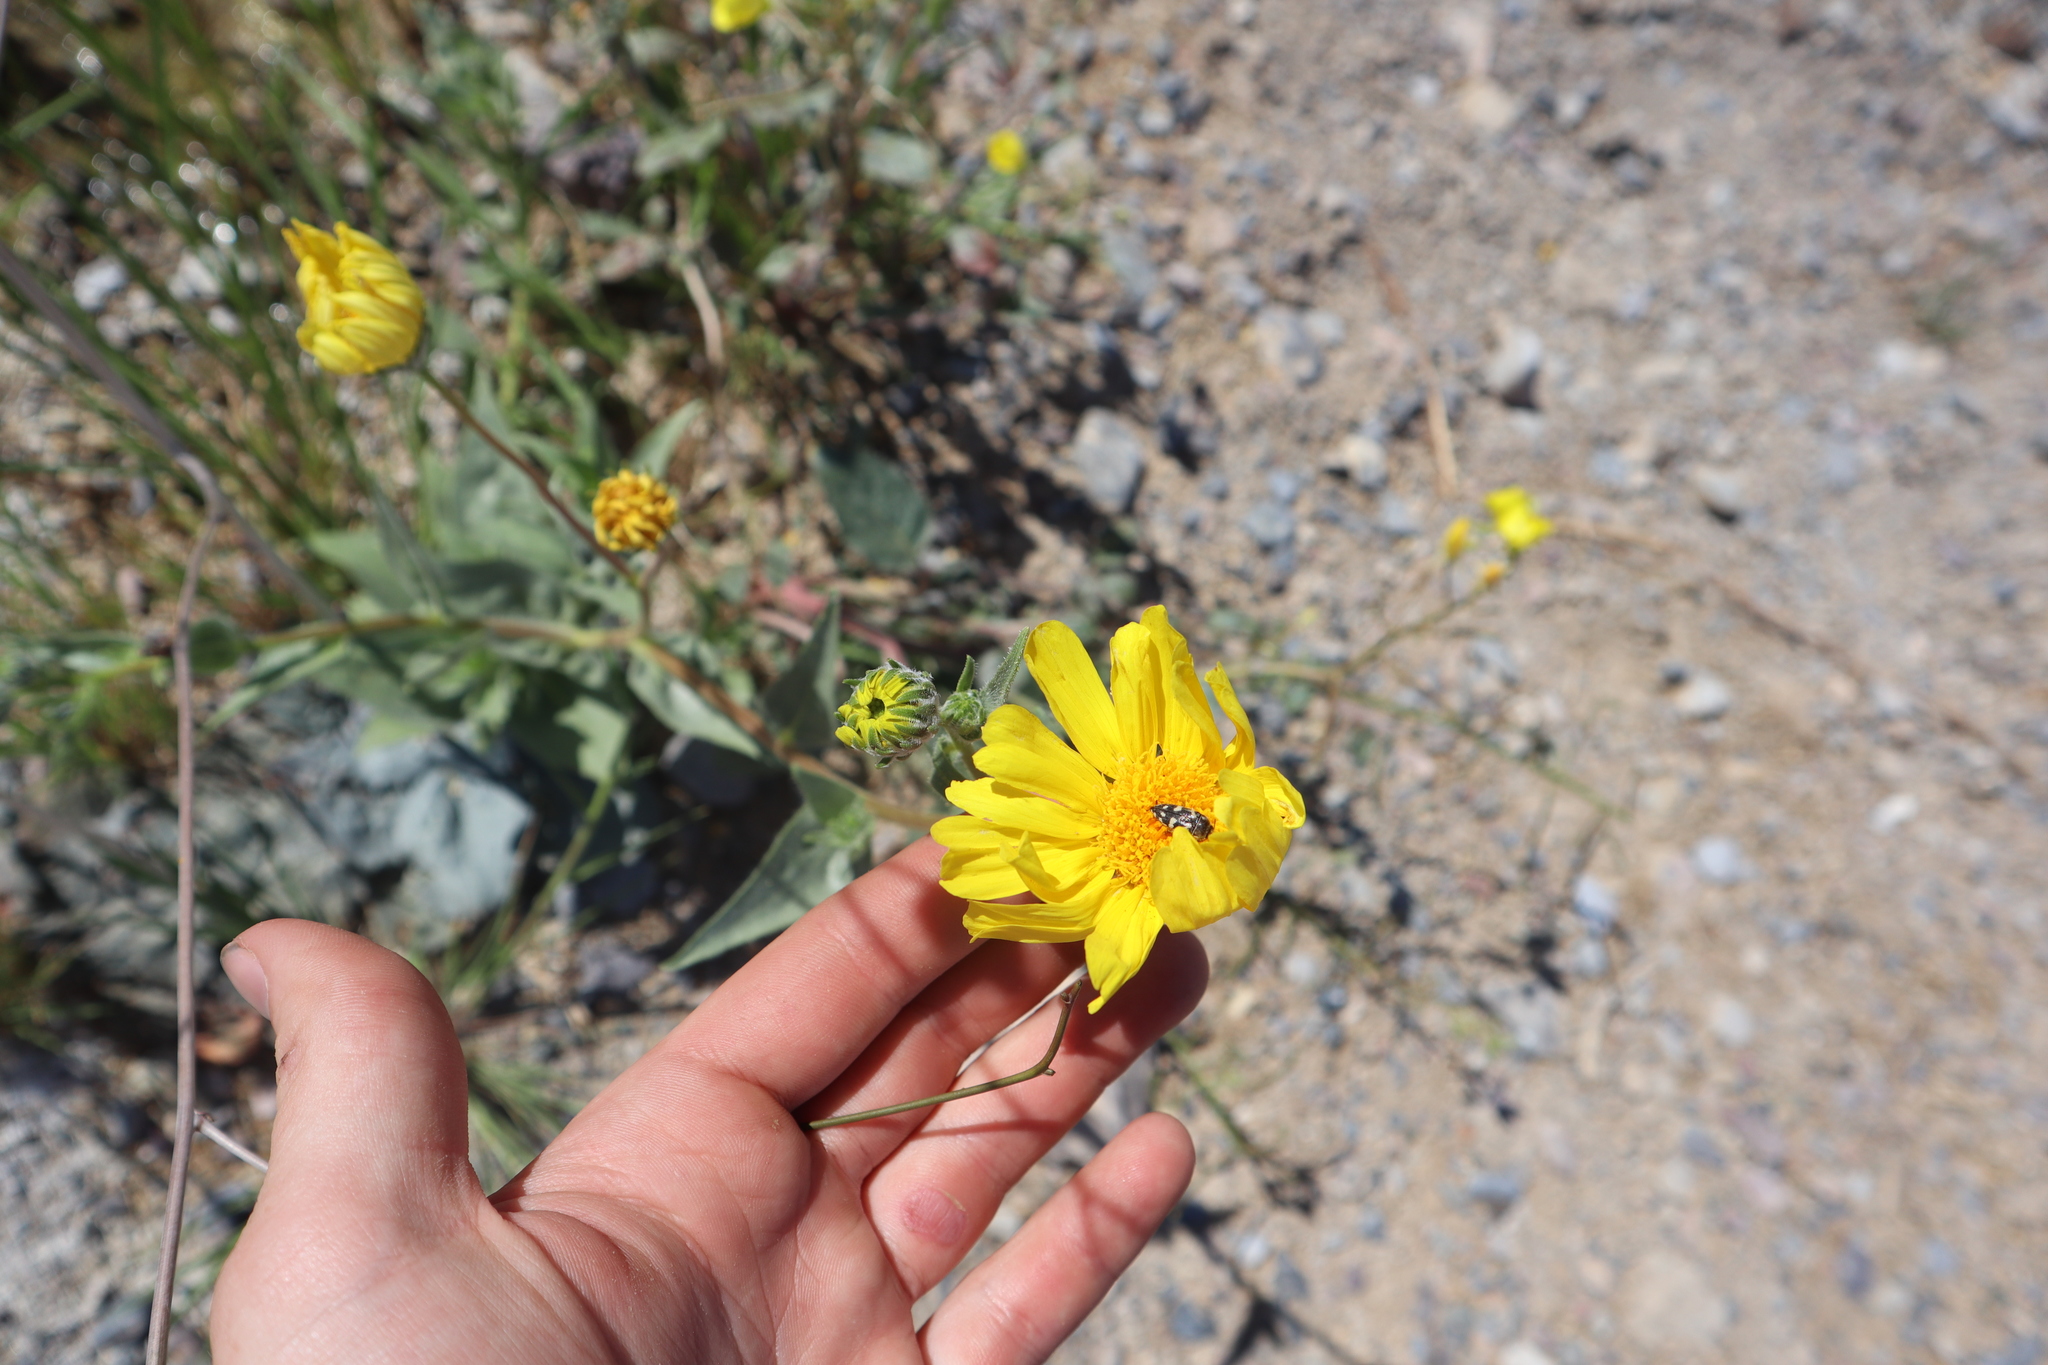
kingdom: Plantae
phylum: Tracheophyta
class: Magnoliopsida
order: Asterales
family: Asteraceae
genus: Geraea
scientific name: Geraea canescens
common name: Desert-gold
